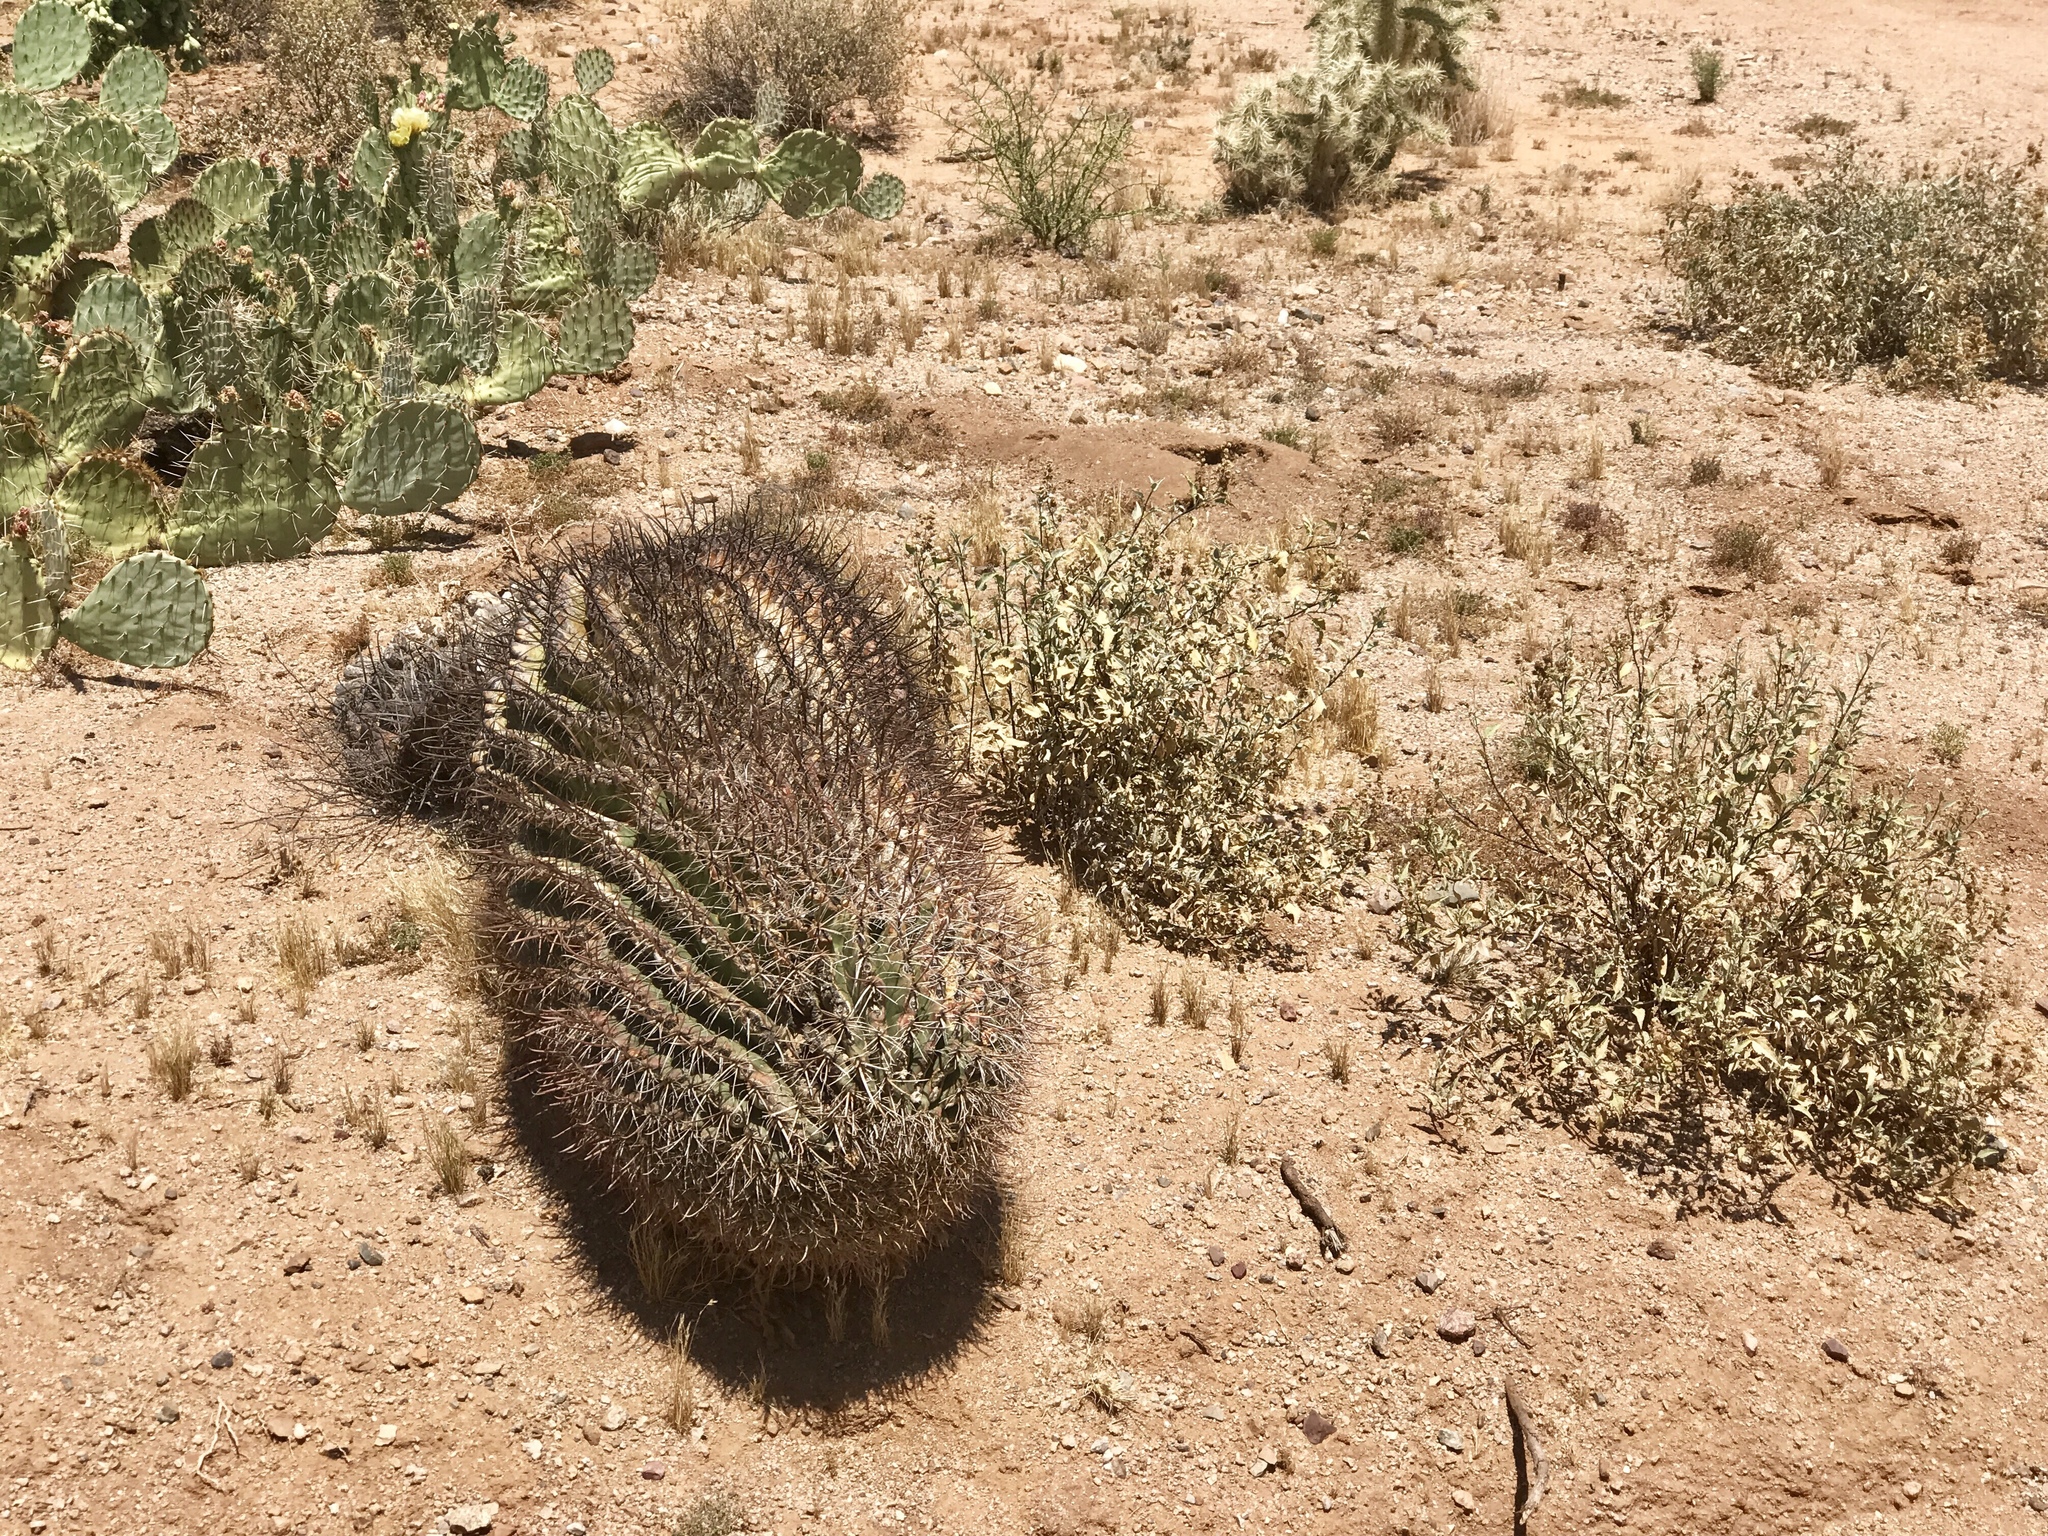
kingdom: Plantae
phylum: Tracheophyta
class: Magnoliopsida
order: Caryophyllales
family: Cactaceae
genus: Ferocactus
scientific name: Ferocactus wislizeni
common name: Candy barrel cactus
